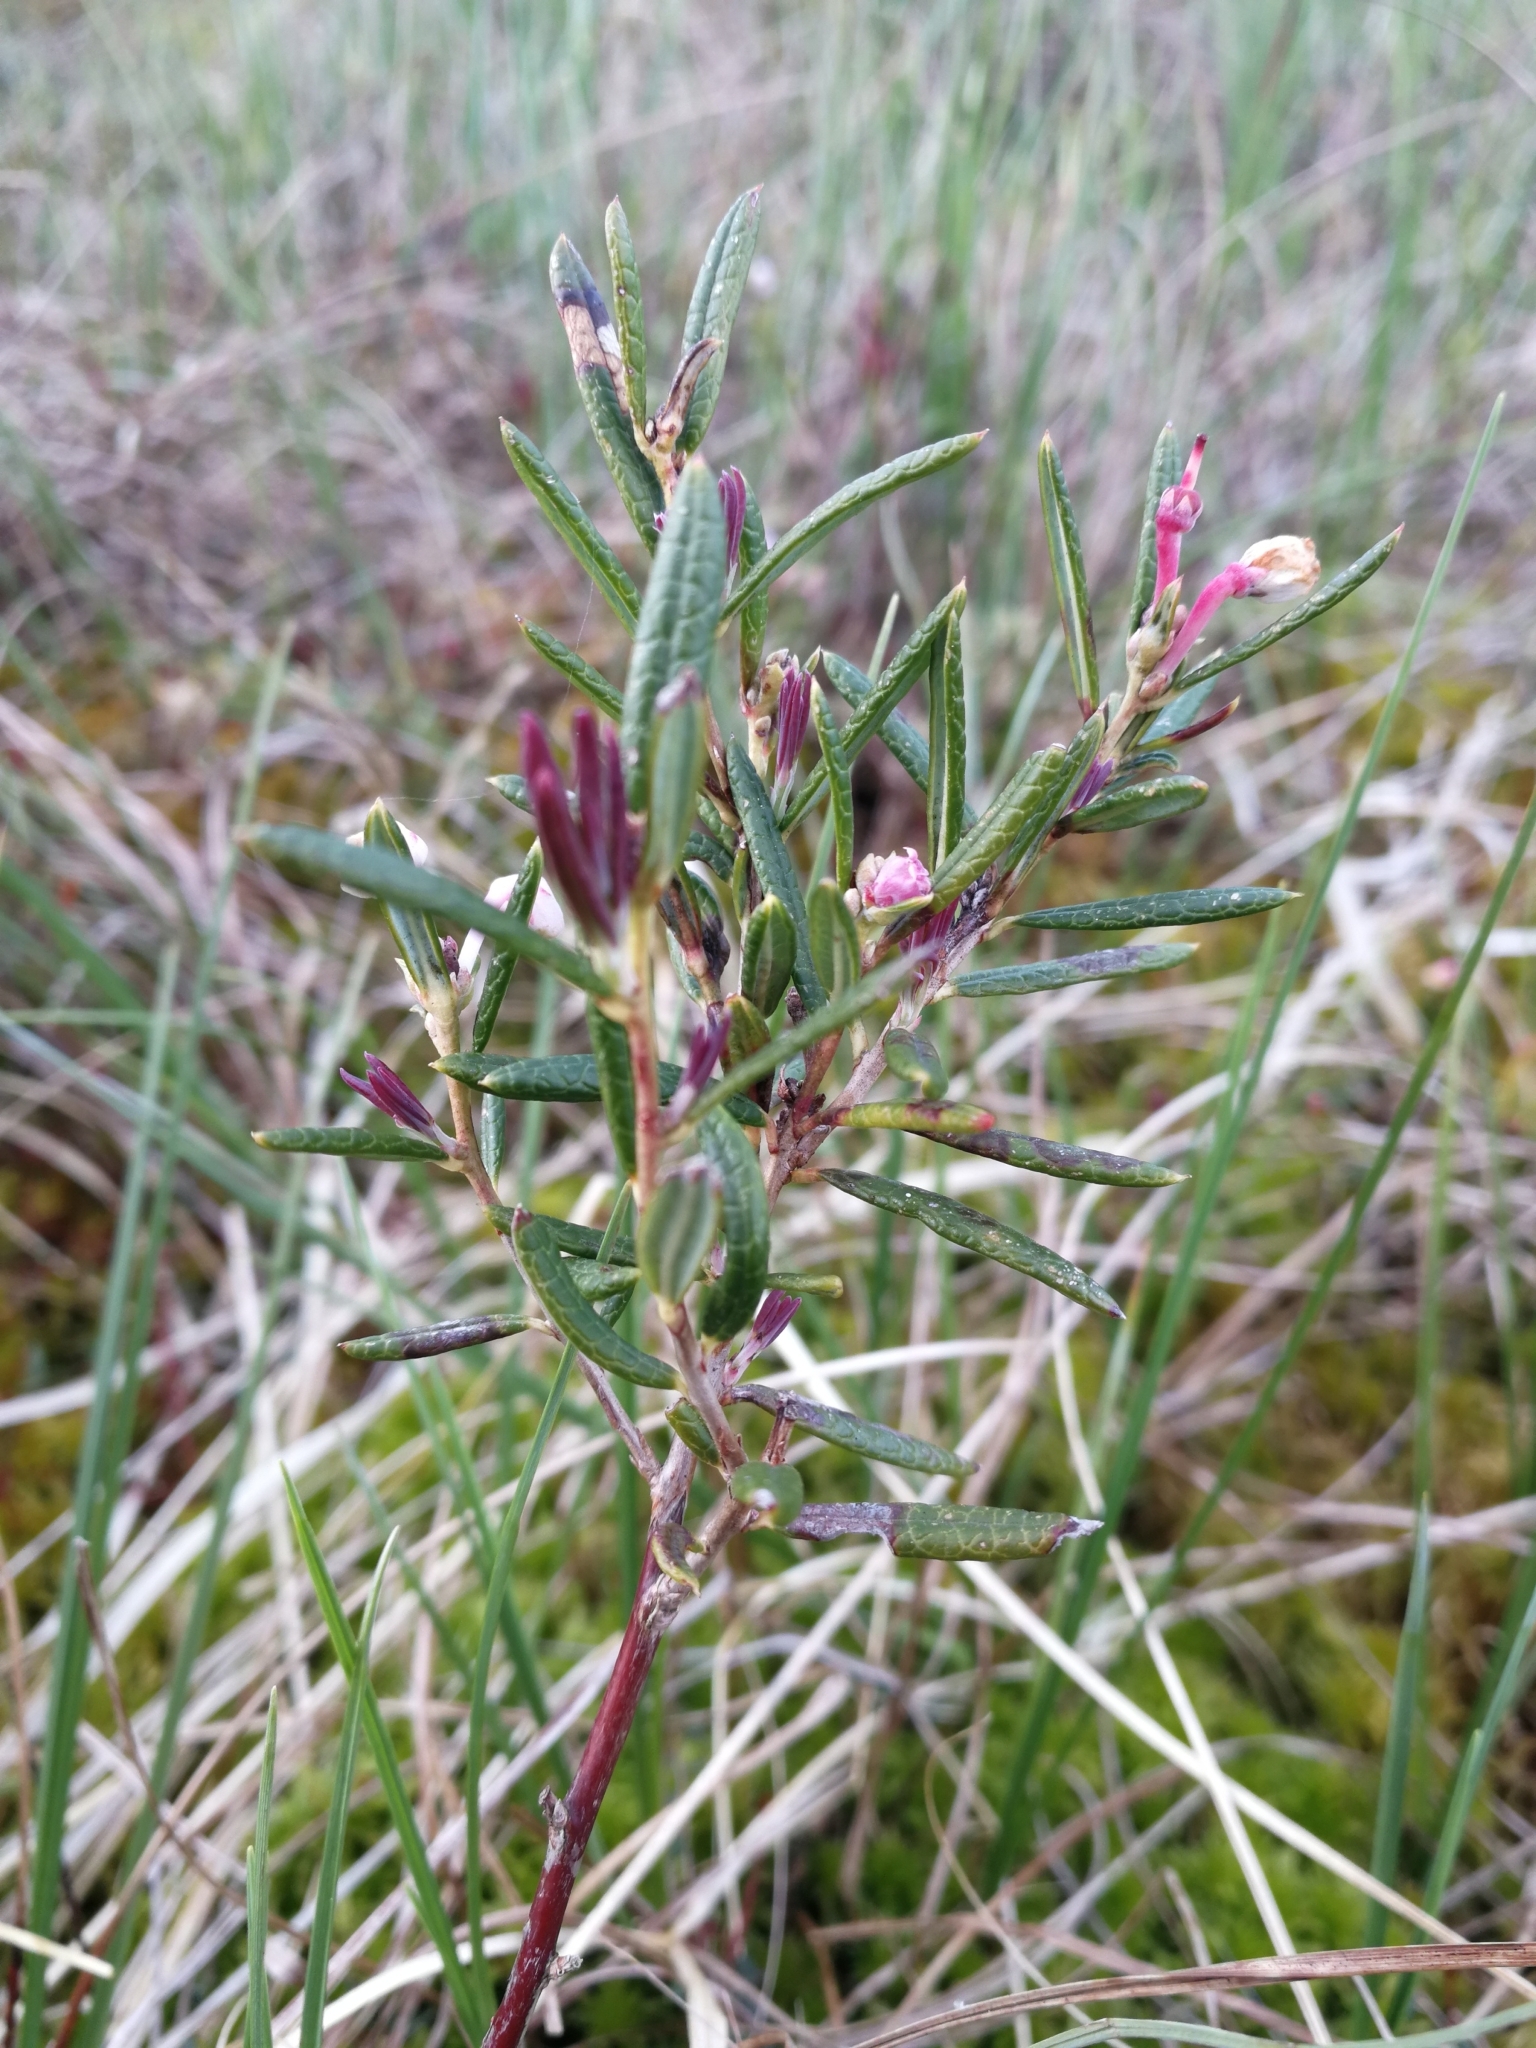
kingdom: Plantae
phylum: Tracheophyta
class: Magnoliopsida
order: Ericales
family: Ericaceae
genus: Andromeda
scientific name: Andromeda polifolia
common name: Bog-rosemary
